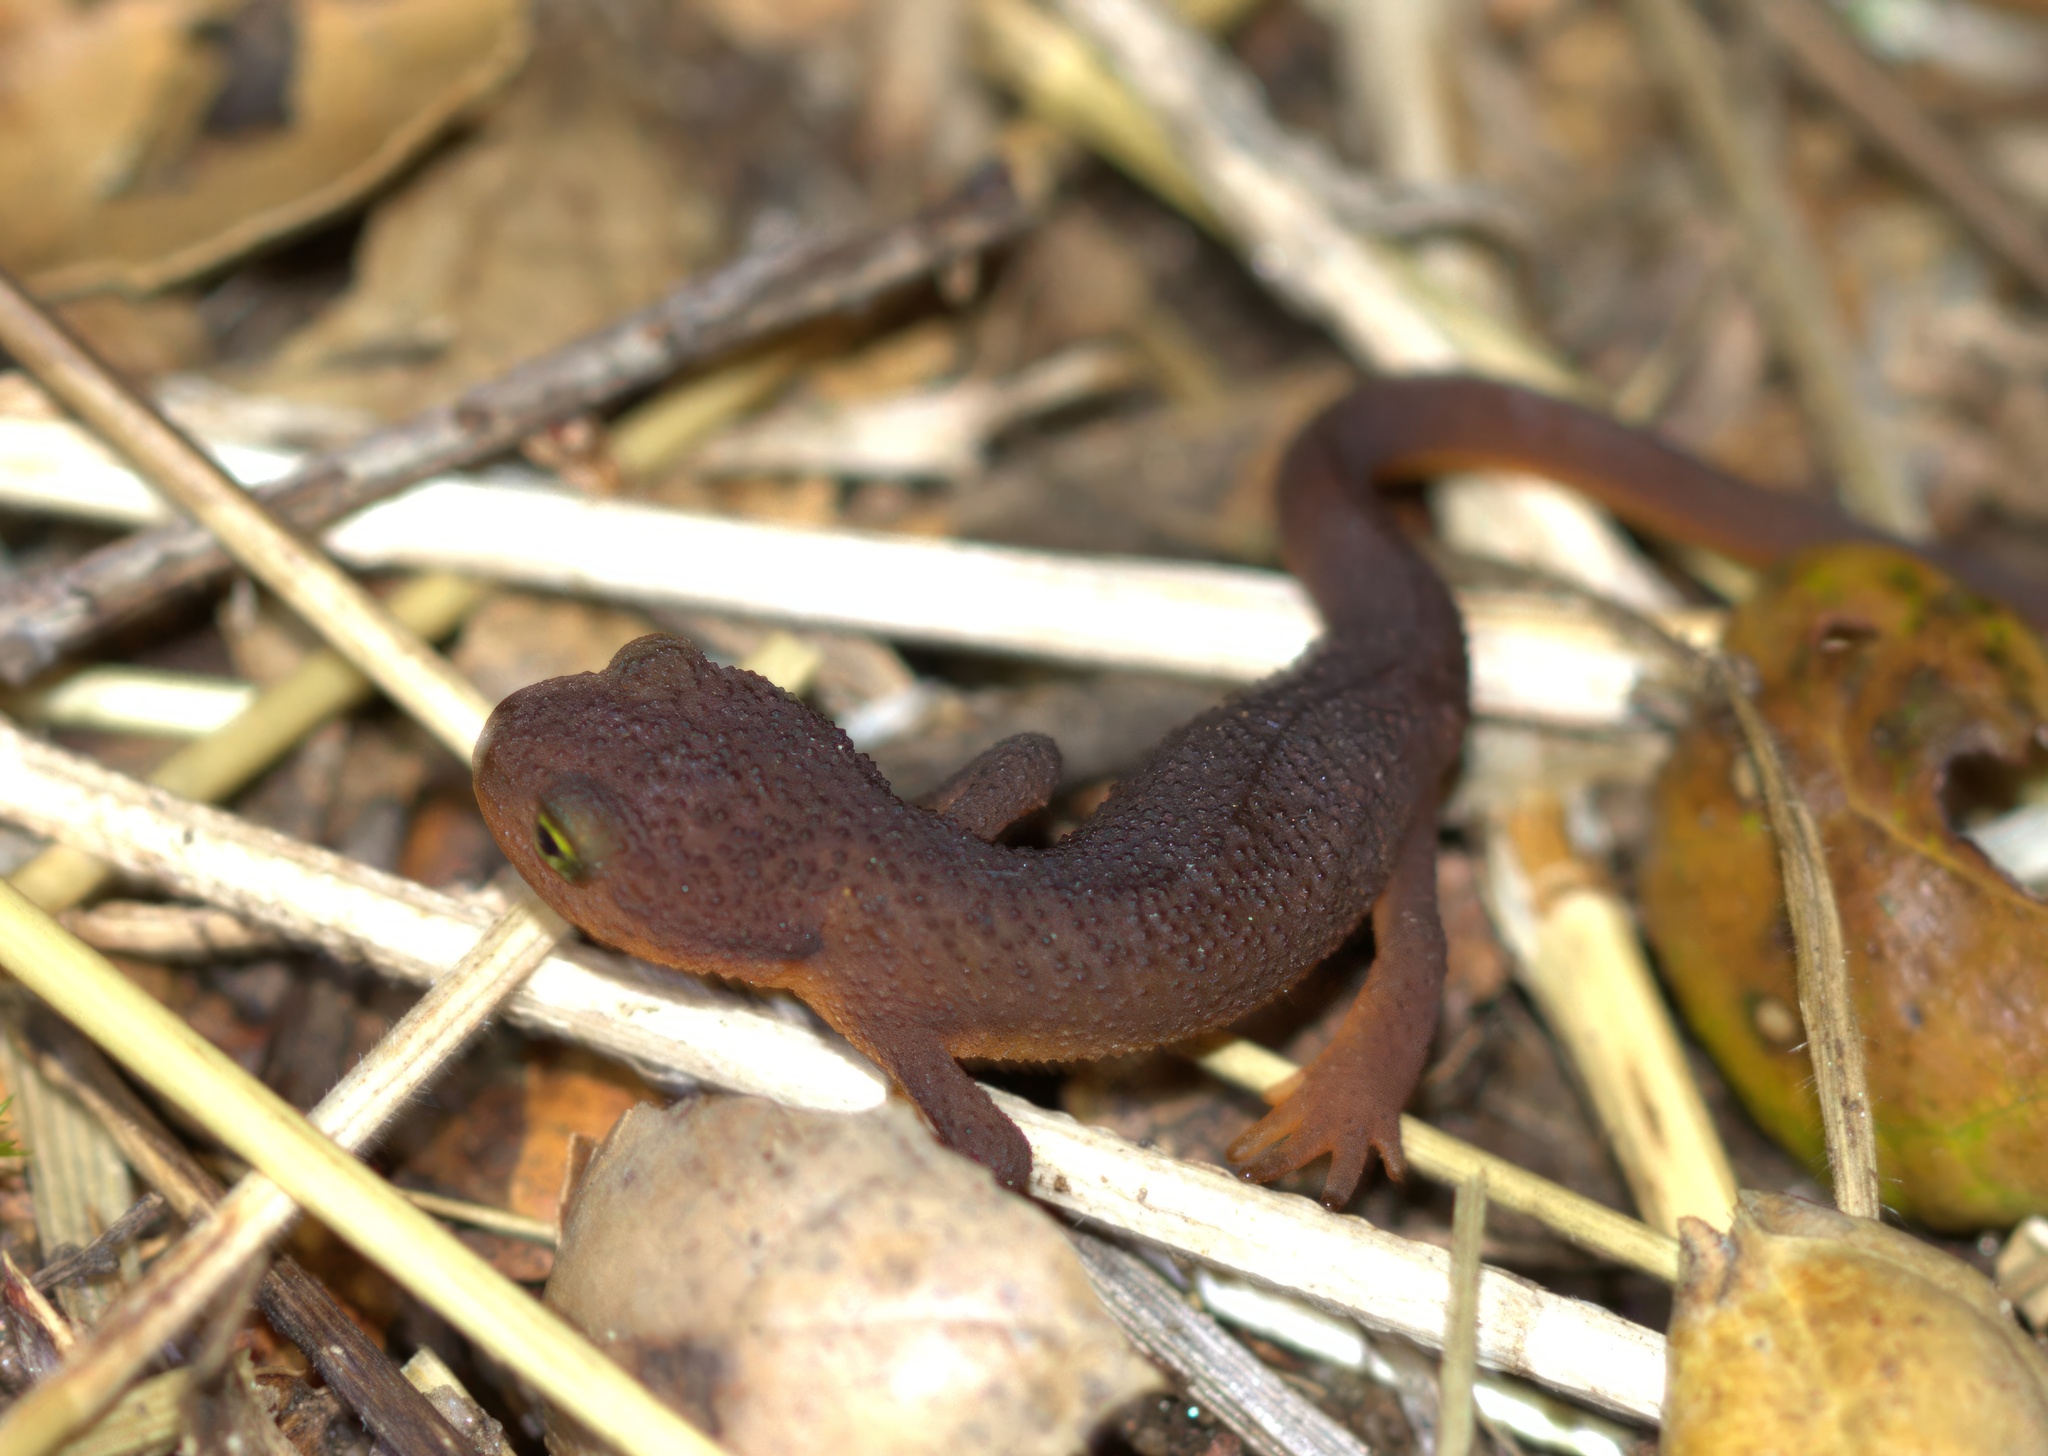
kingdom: Animalia
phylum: Chordata
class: Amphibia
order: Caudata
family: Salamandridae
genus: Taricha
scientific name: Taricha torosa
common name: California newt
